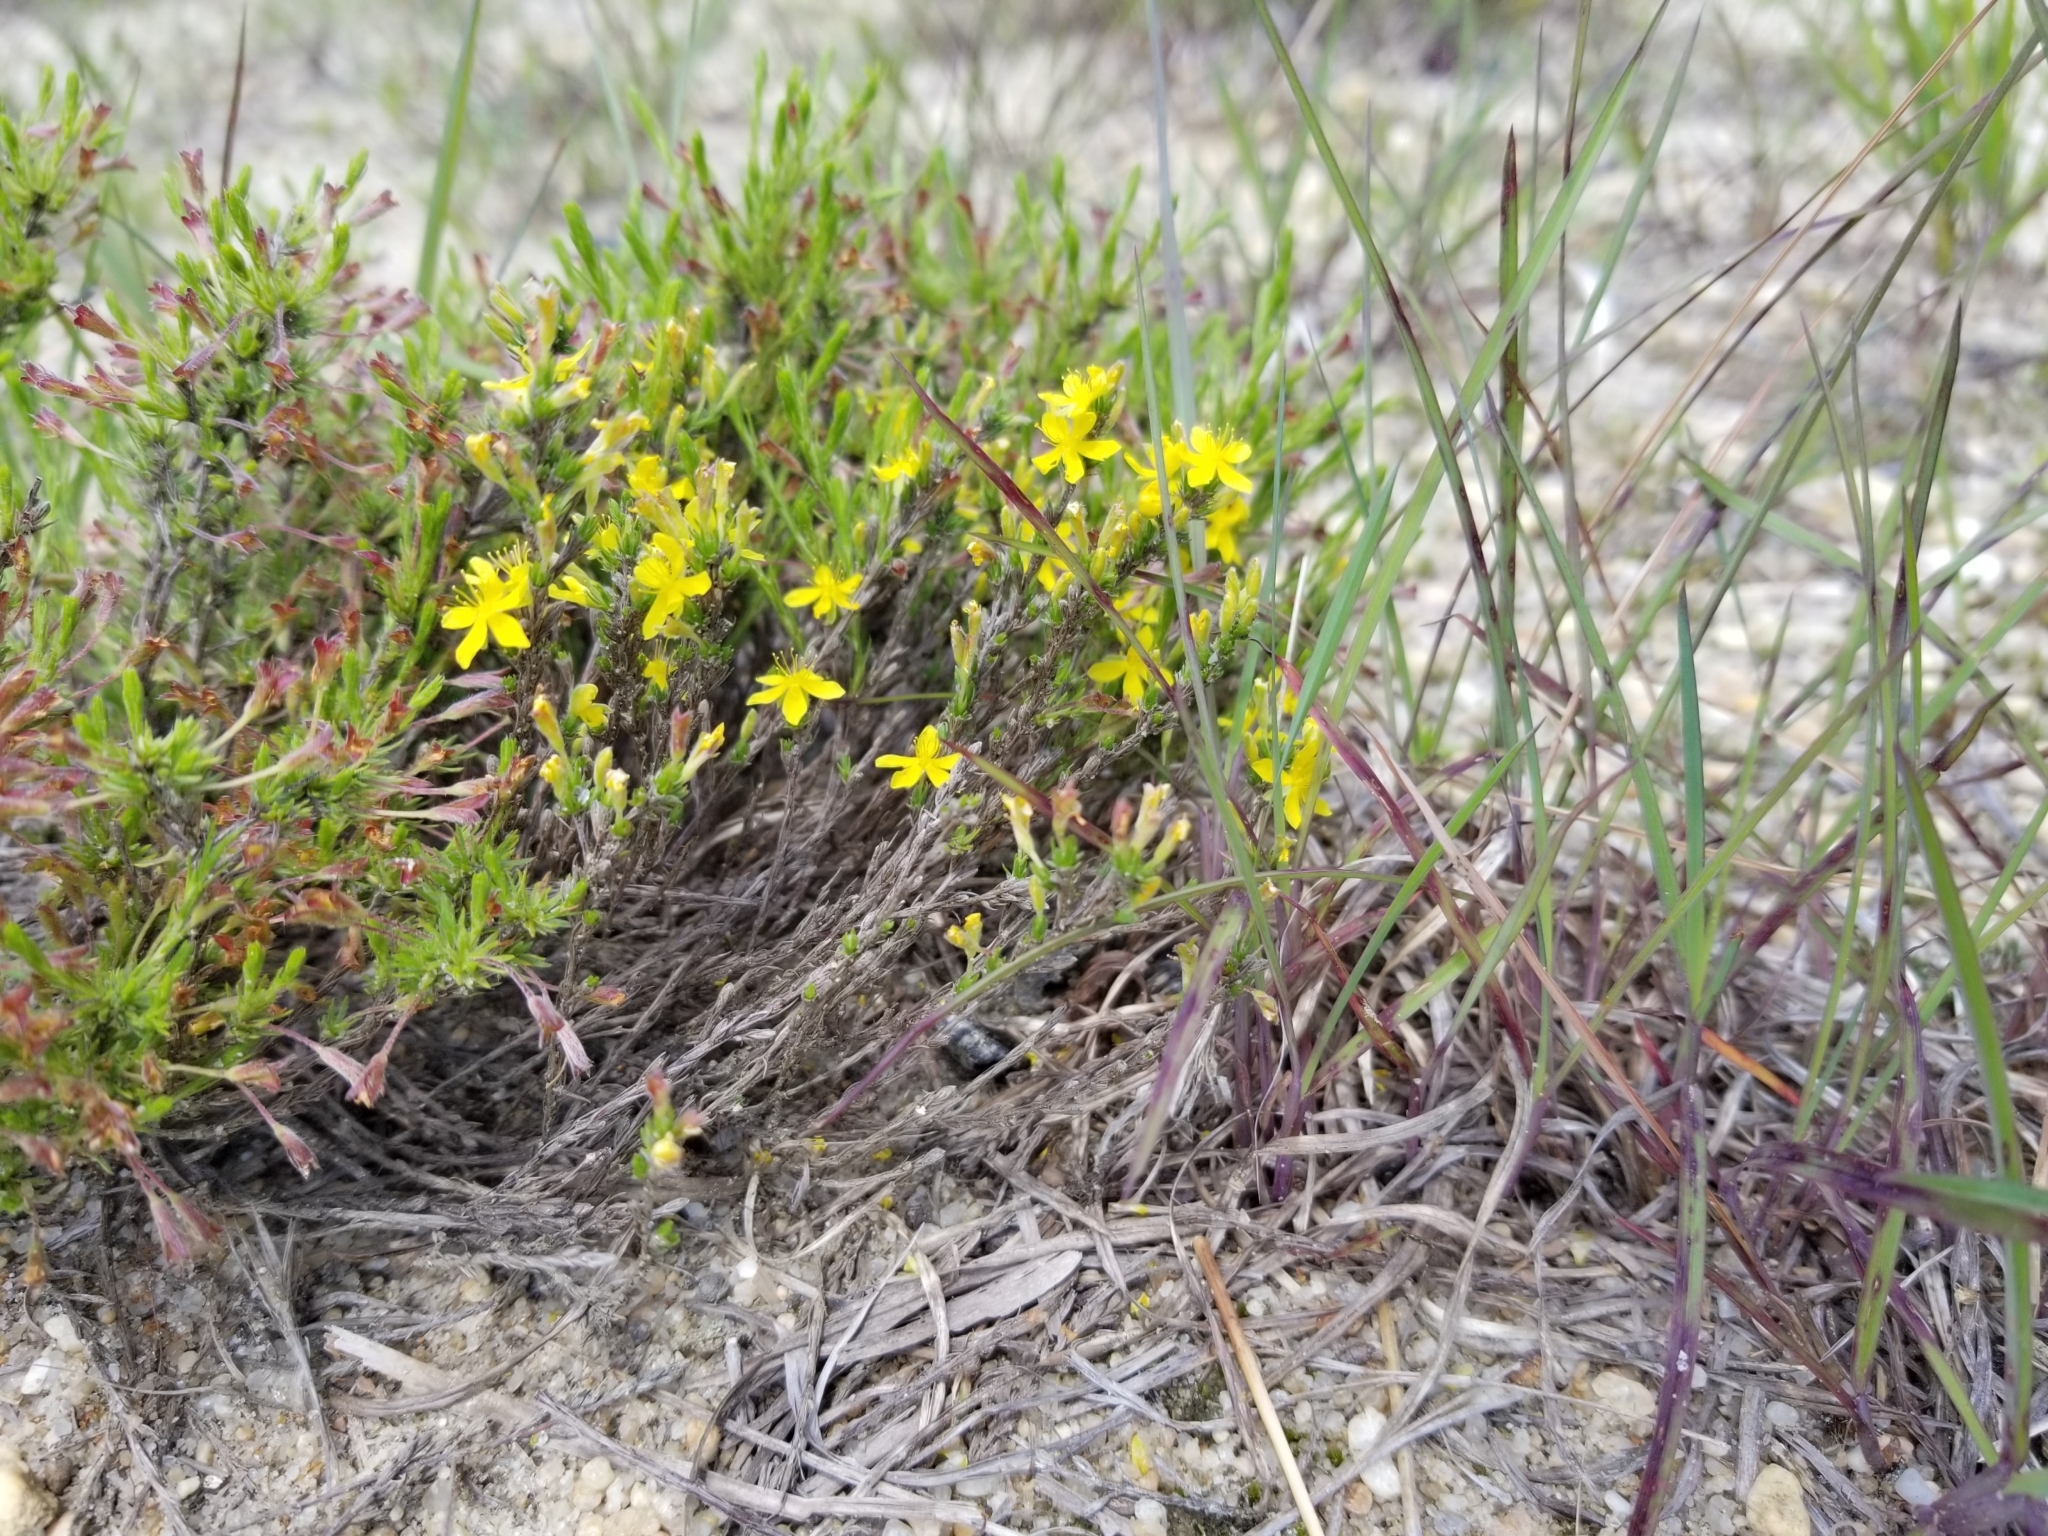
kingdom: Plantae
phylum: Tracheophyta
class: Magnoliopsida
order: Malvales
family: Cistaceae
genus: Hudsonia
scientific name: Hudsonia ericoides
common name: Golden-heather
